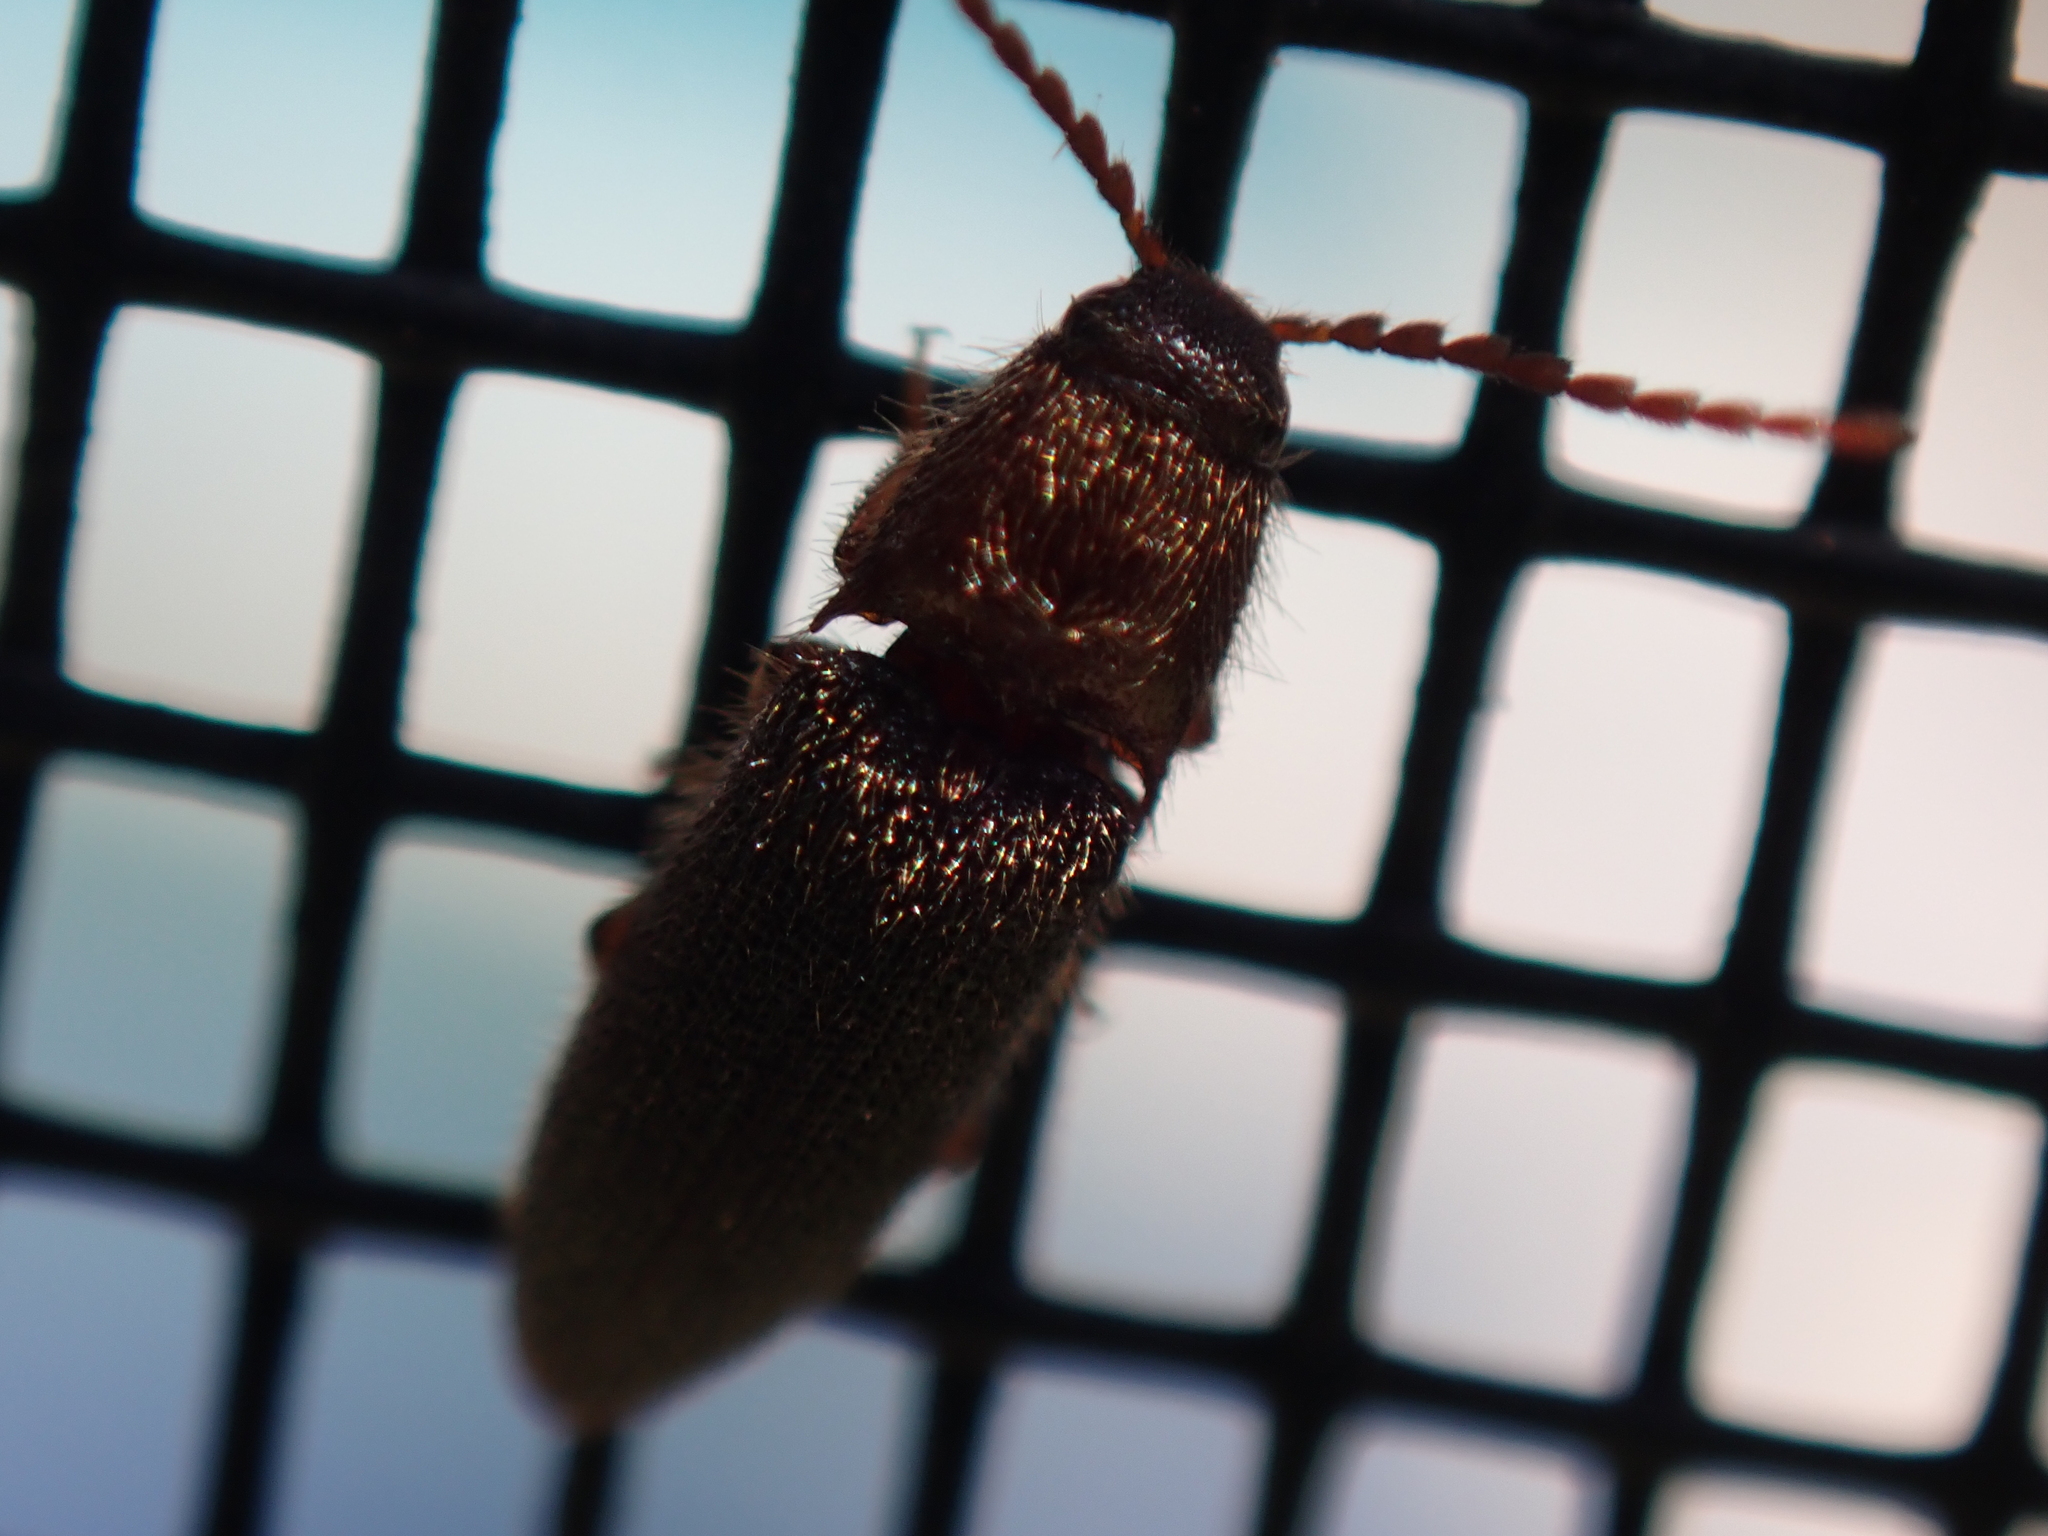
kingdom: Animalia
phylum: Arthropoda
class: Insecta
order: Coleoptera
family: Elateridae
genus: Dipropus
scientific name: Dipropus
